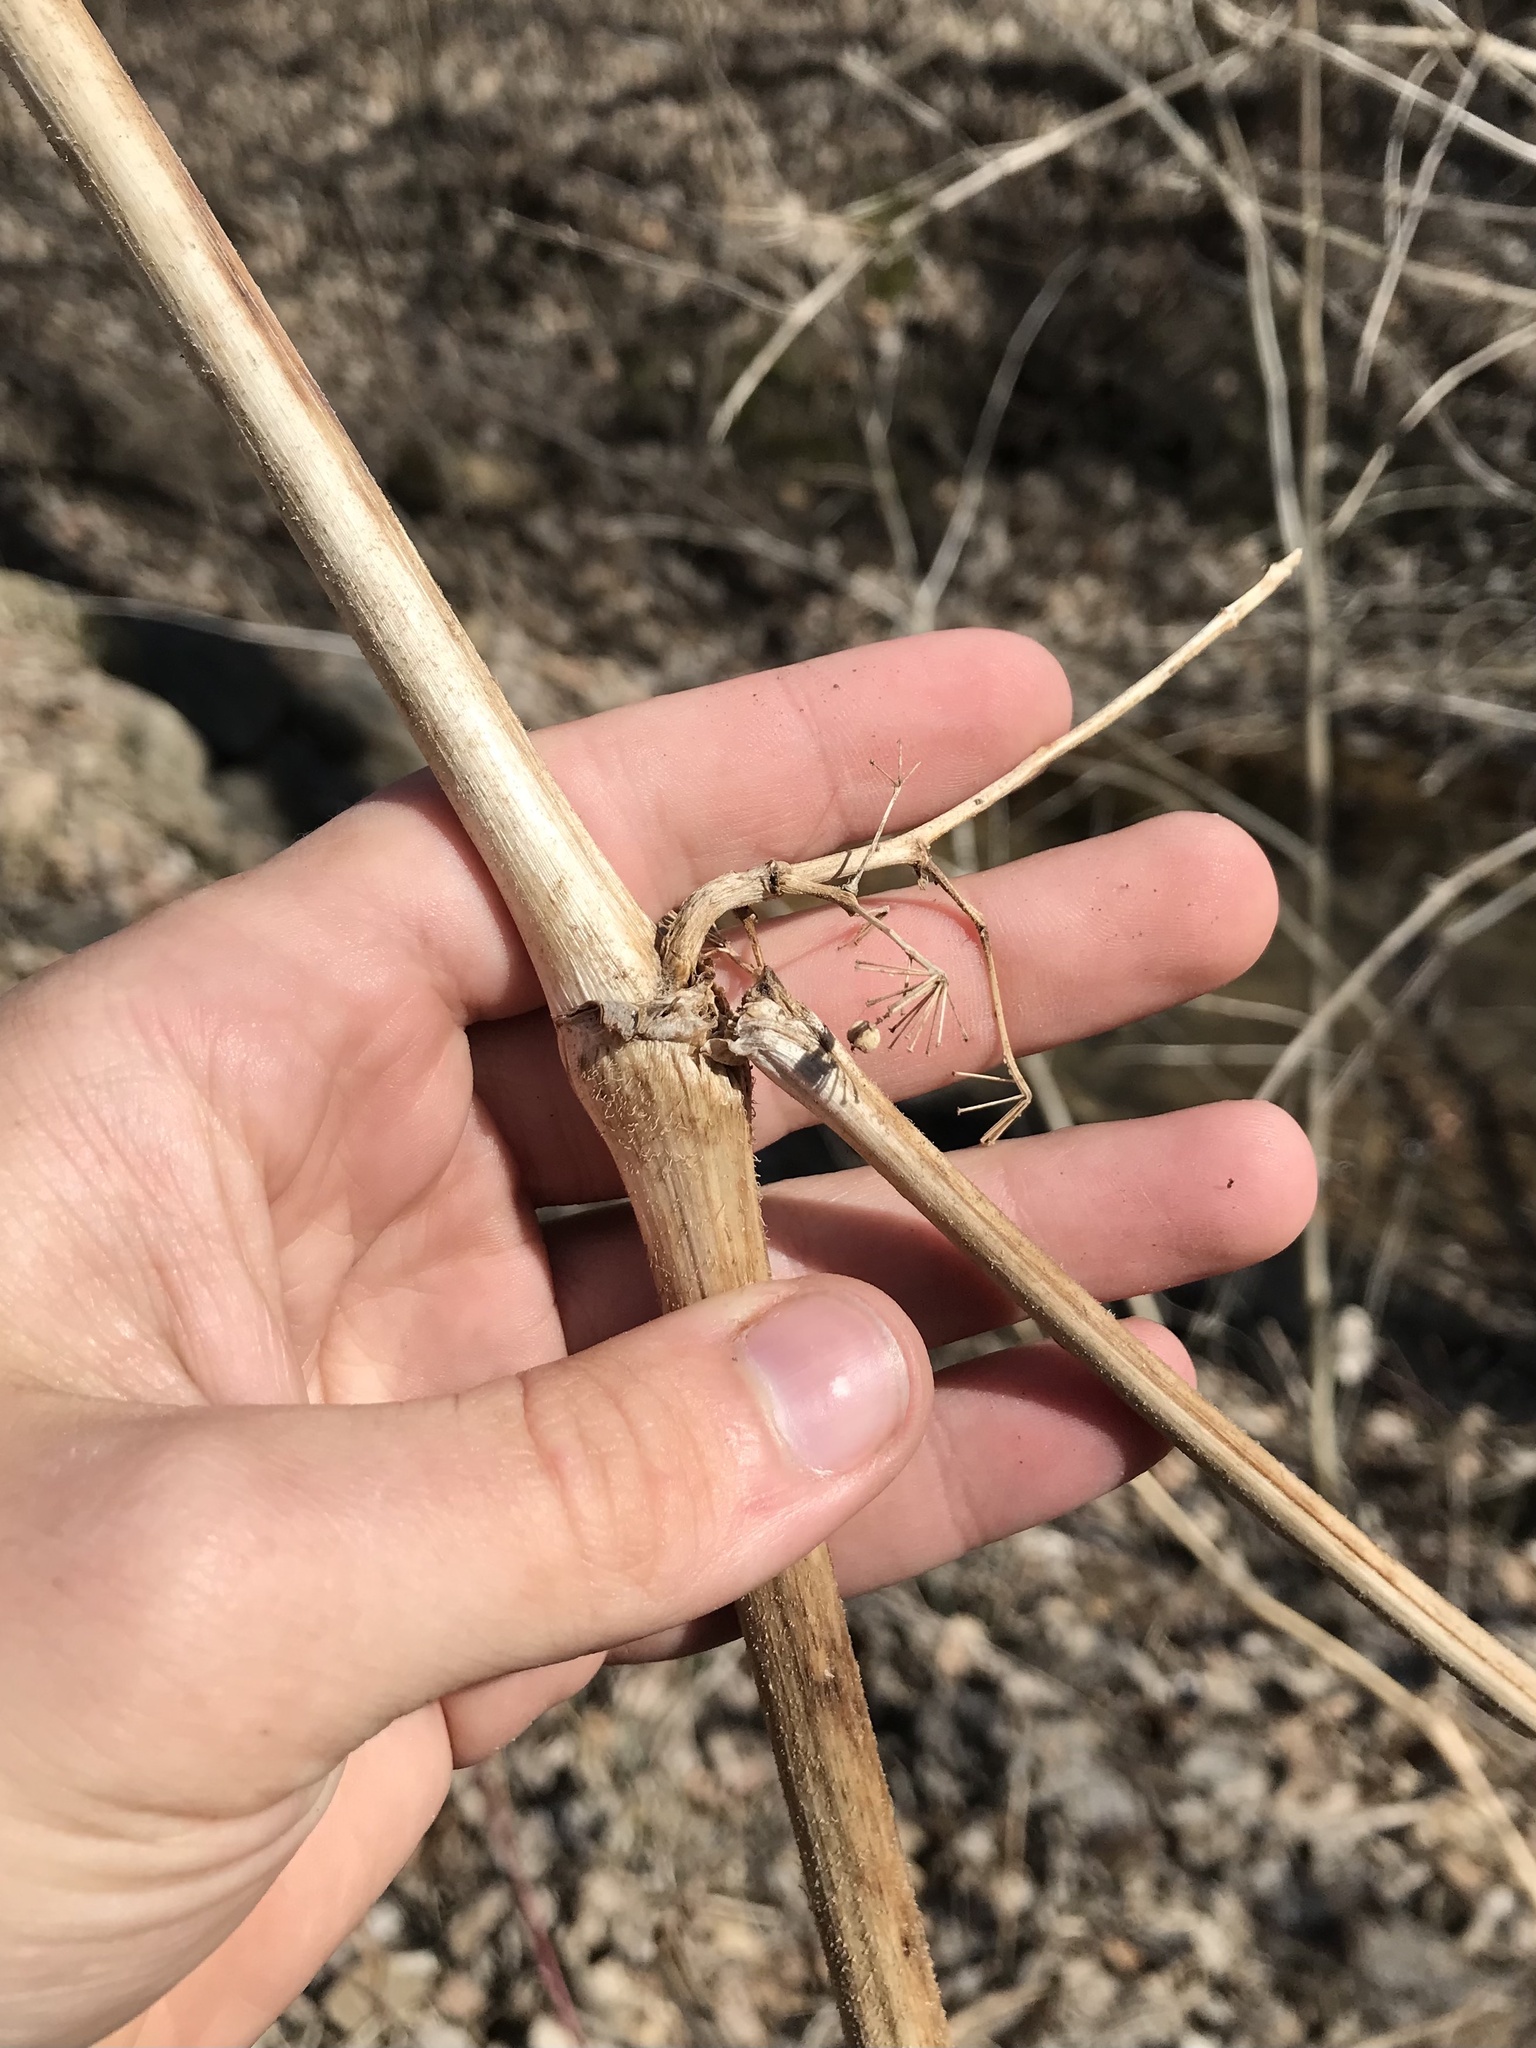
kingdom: Plantae
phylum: Tracheophyta
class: Magnoliopsida
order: Apiales
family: Araliaceae
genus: Aralia
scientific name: Aralia racemosa
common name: American-spikenard
